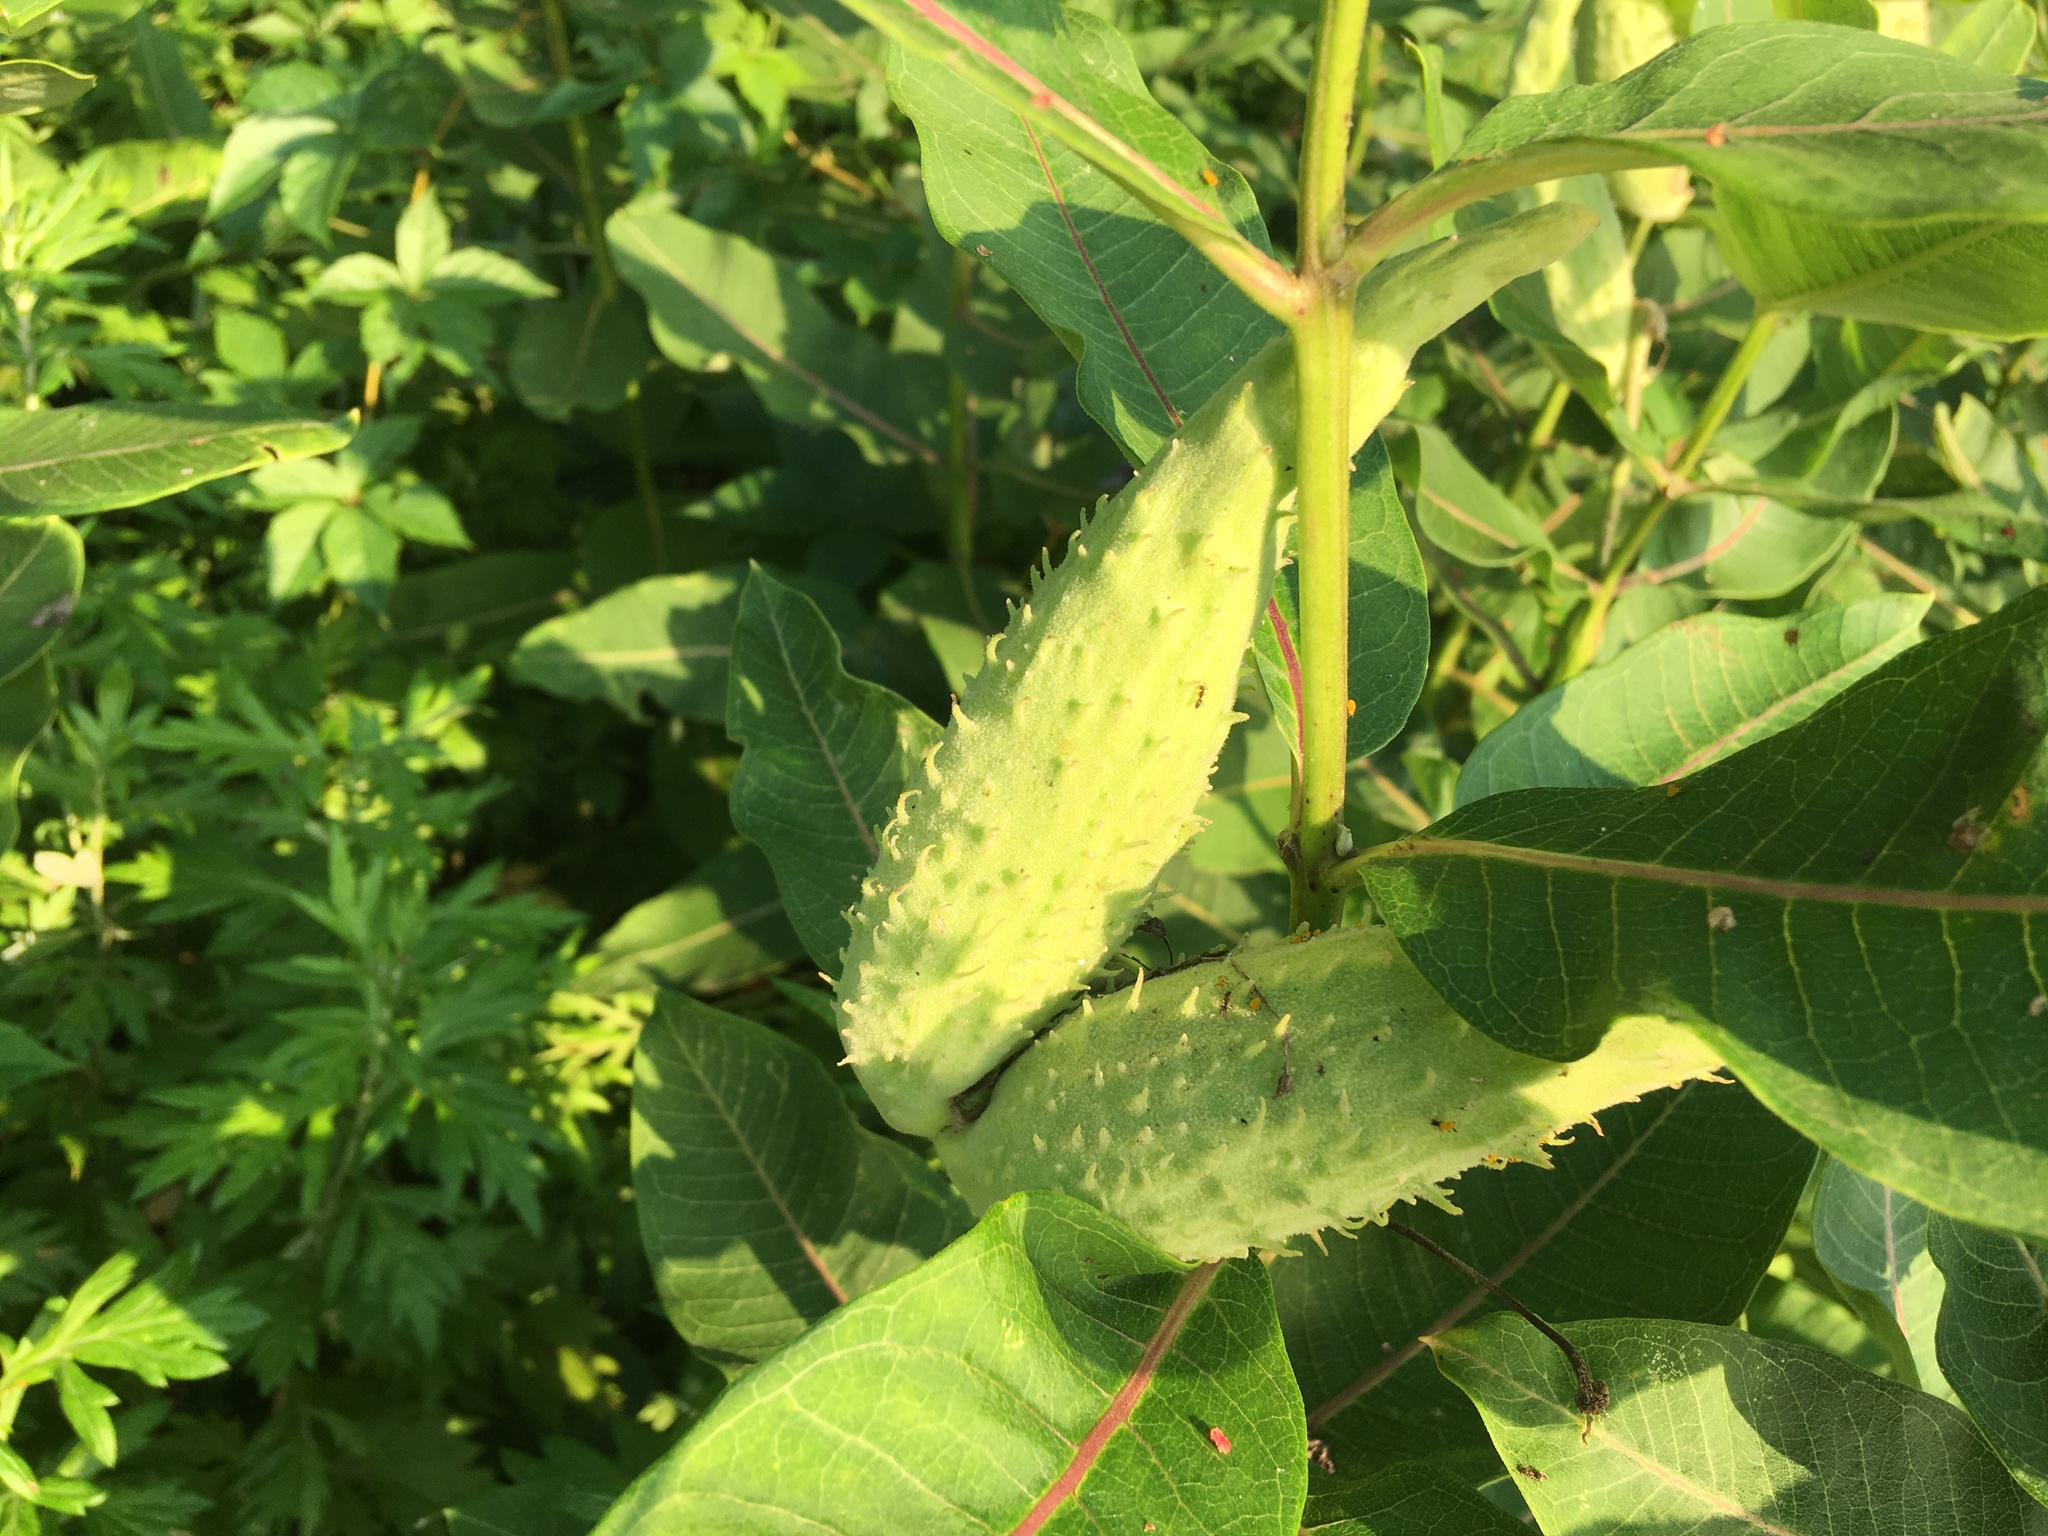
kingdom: Plantae
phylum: Tracheophyta
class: Magnoliopsida
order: Gentianales
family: Apocynaceae
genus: Asclepias
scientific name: Asclepias syriaca
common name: Common milkweed
